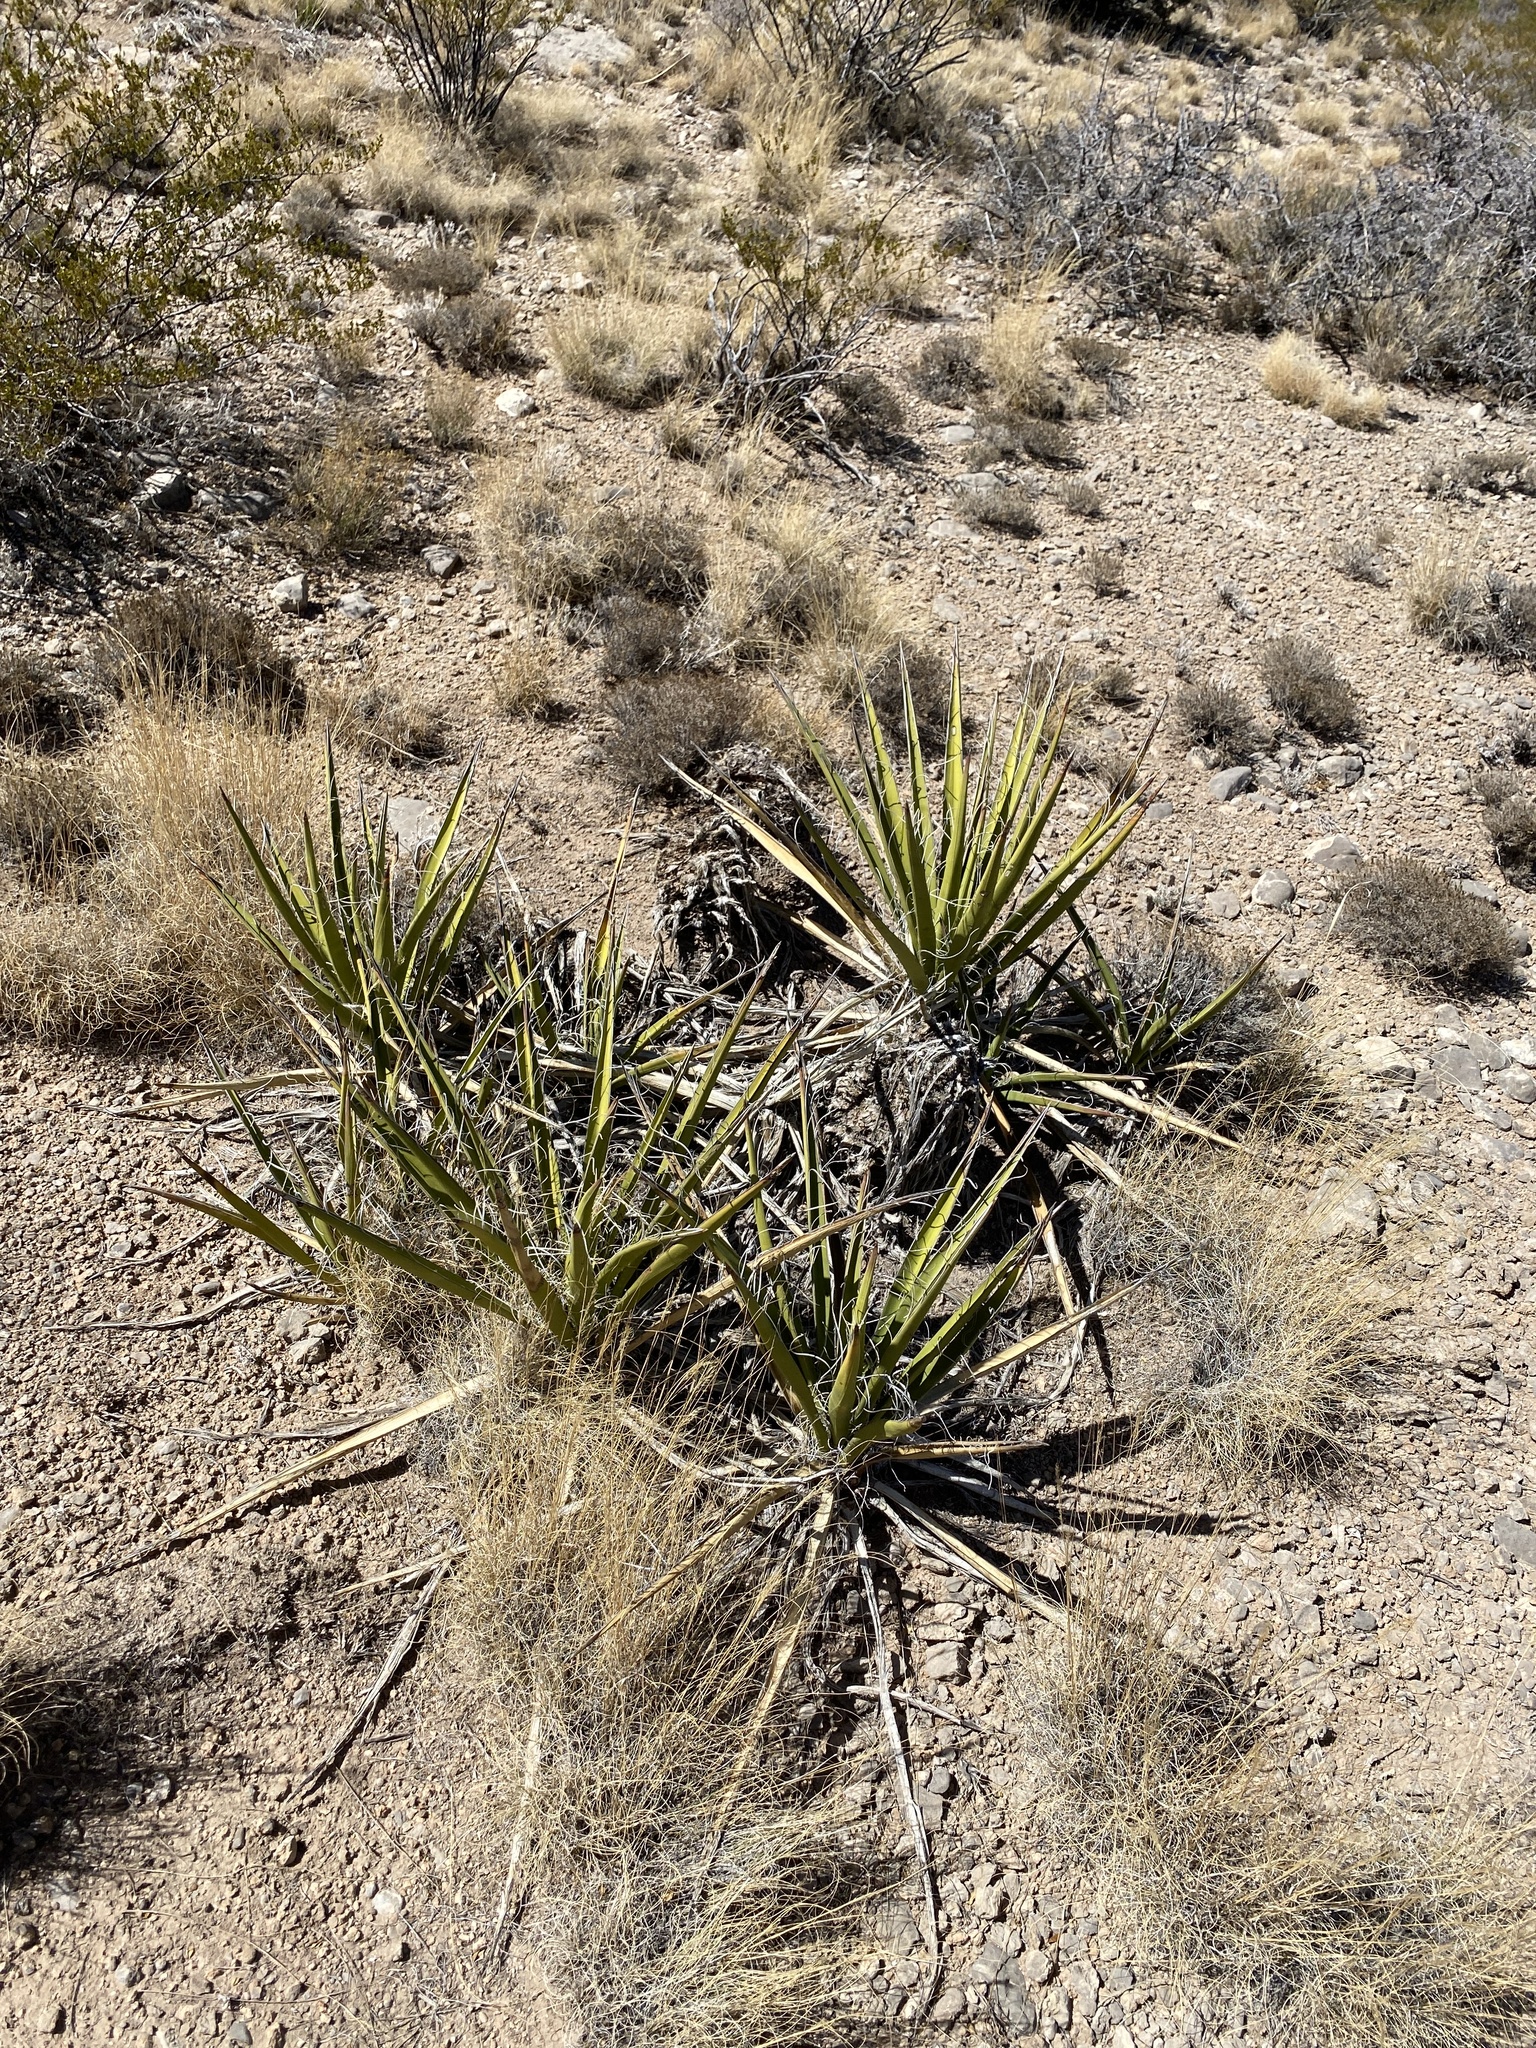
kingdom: Plantae
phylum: Tracheophyta
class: Liliopsida
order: Asparagales
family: Asparagaceae
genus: Yucca
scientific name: Yucca baccata
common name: Banana yucca
